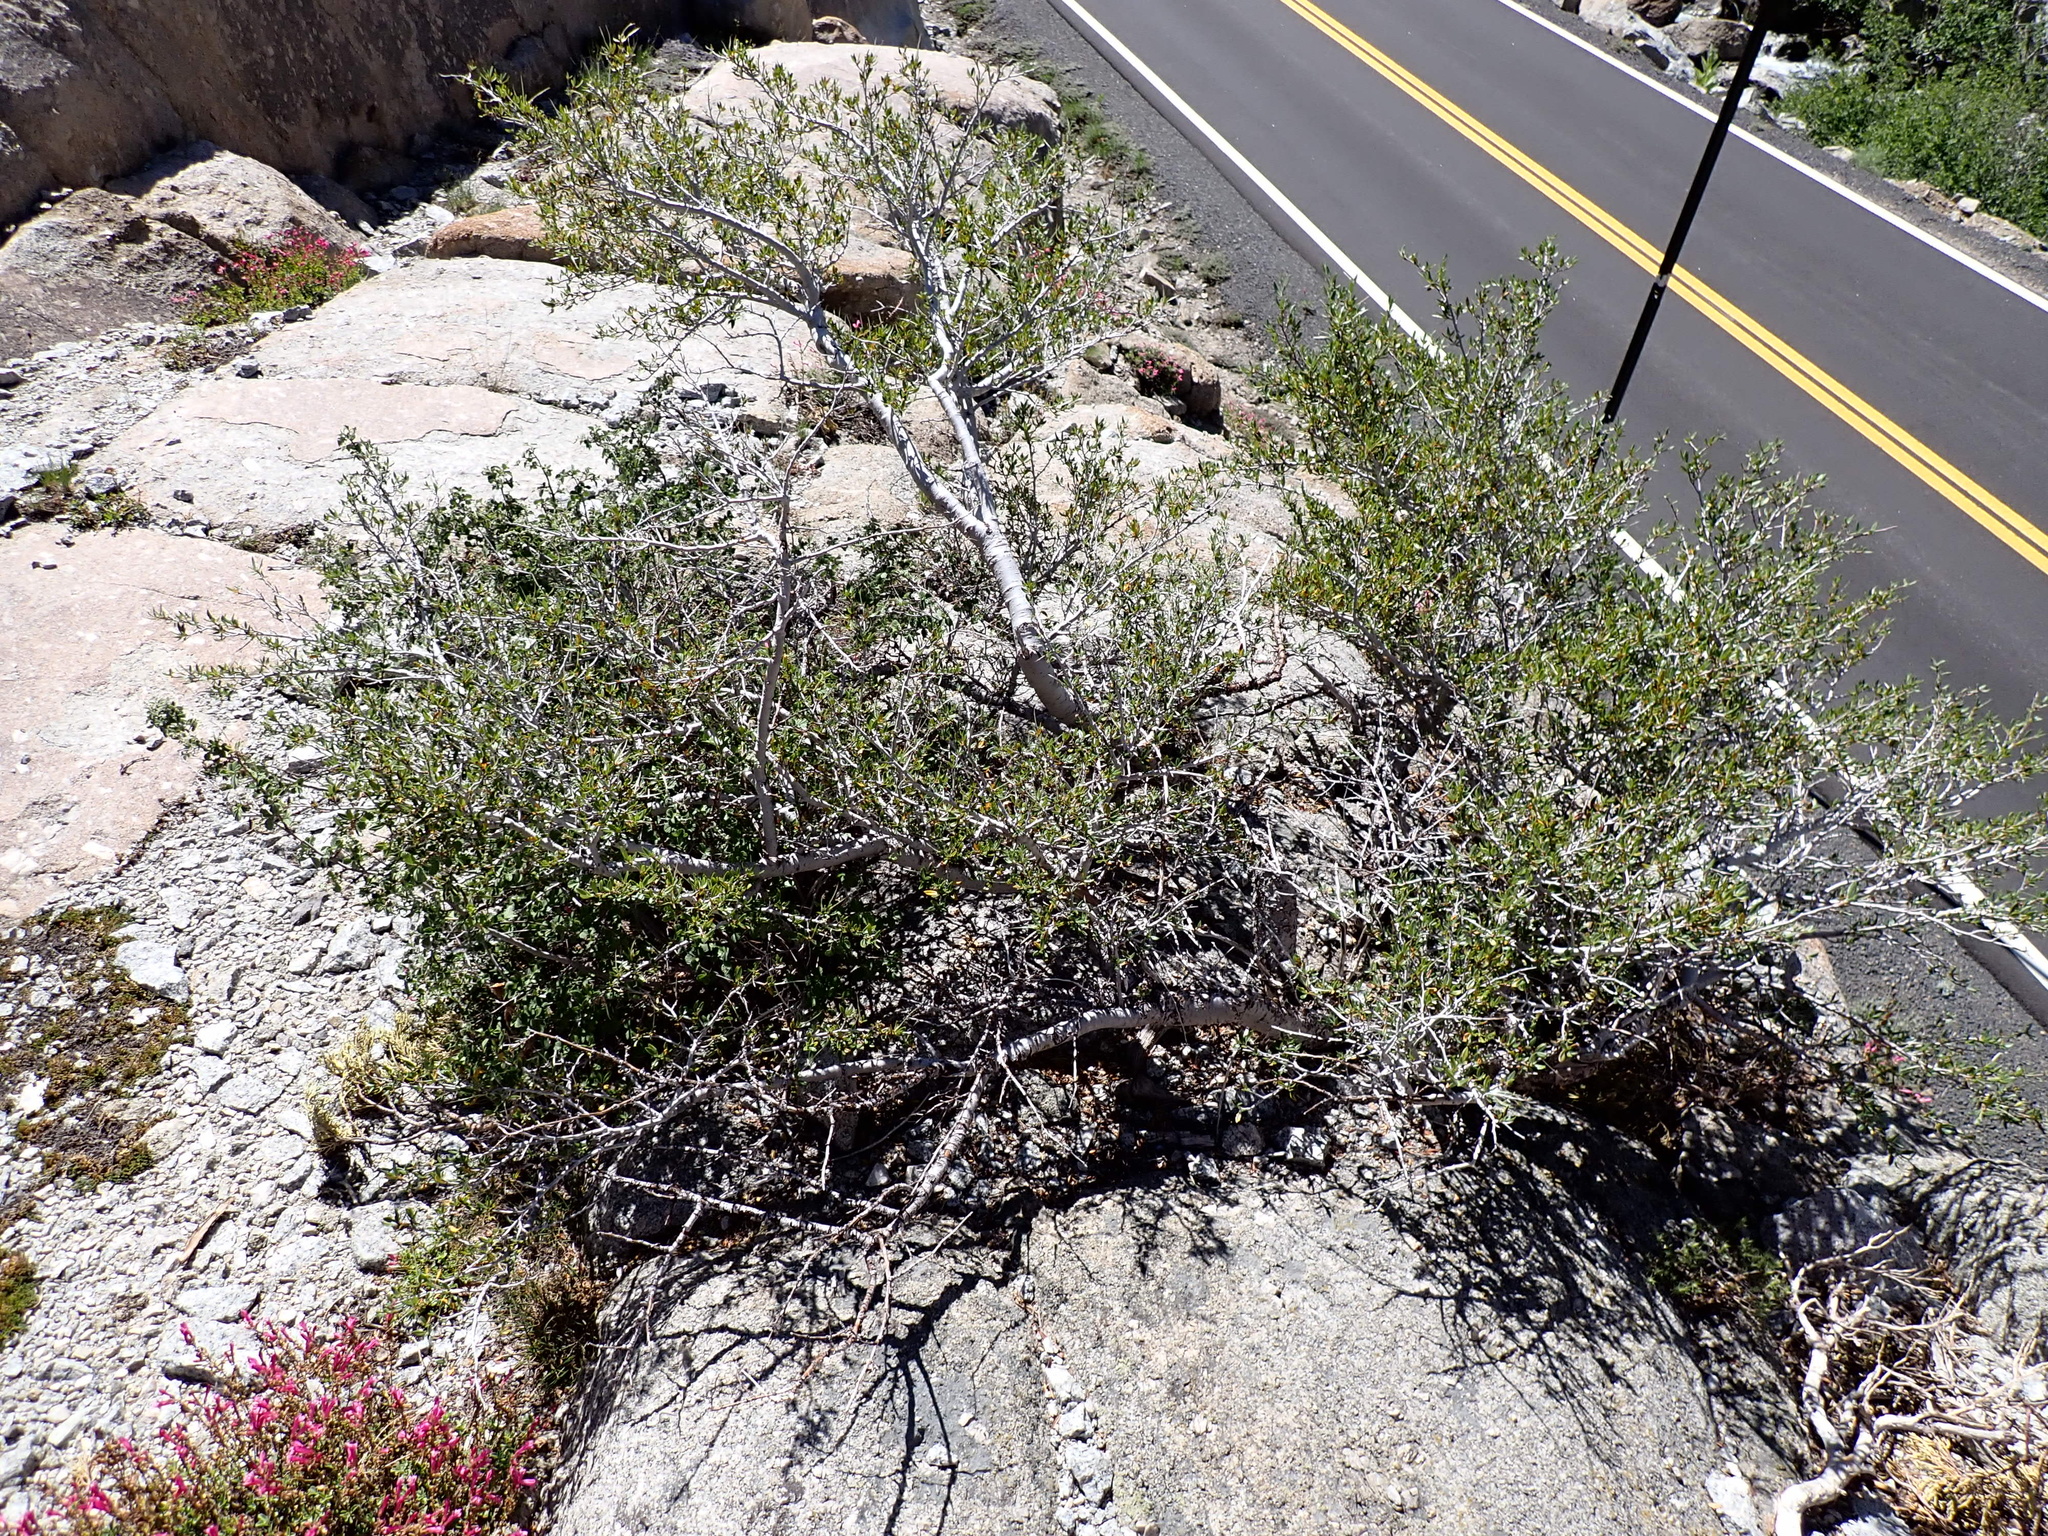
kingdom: Plantae
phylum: Tracheophyta
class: Magnoliopsida
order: Rosales
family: Rosaceae
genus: Cercocarpus
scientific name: Cercocarpus ledifolius
